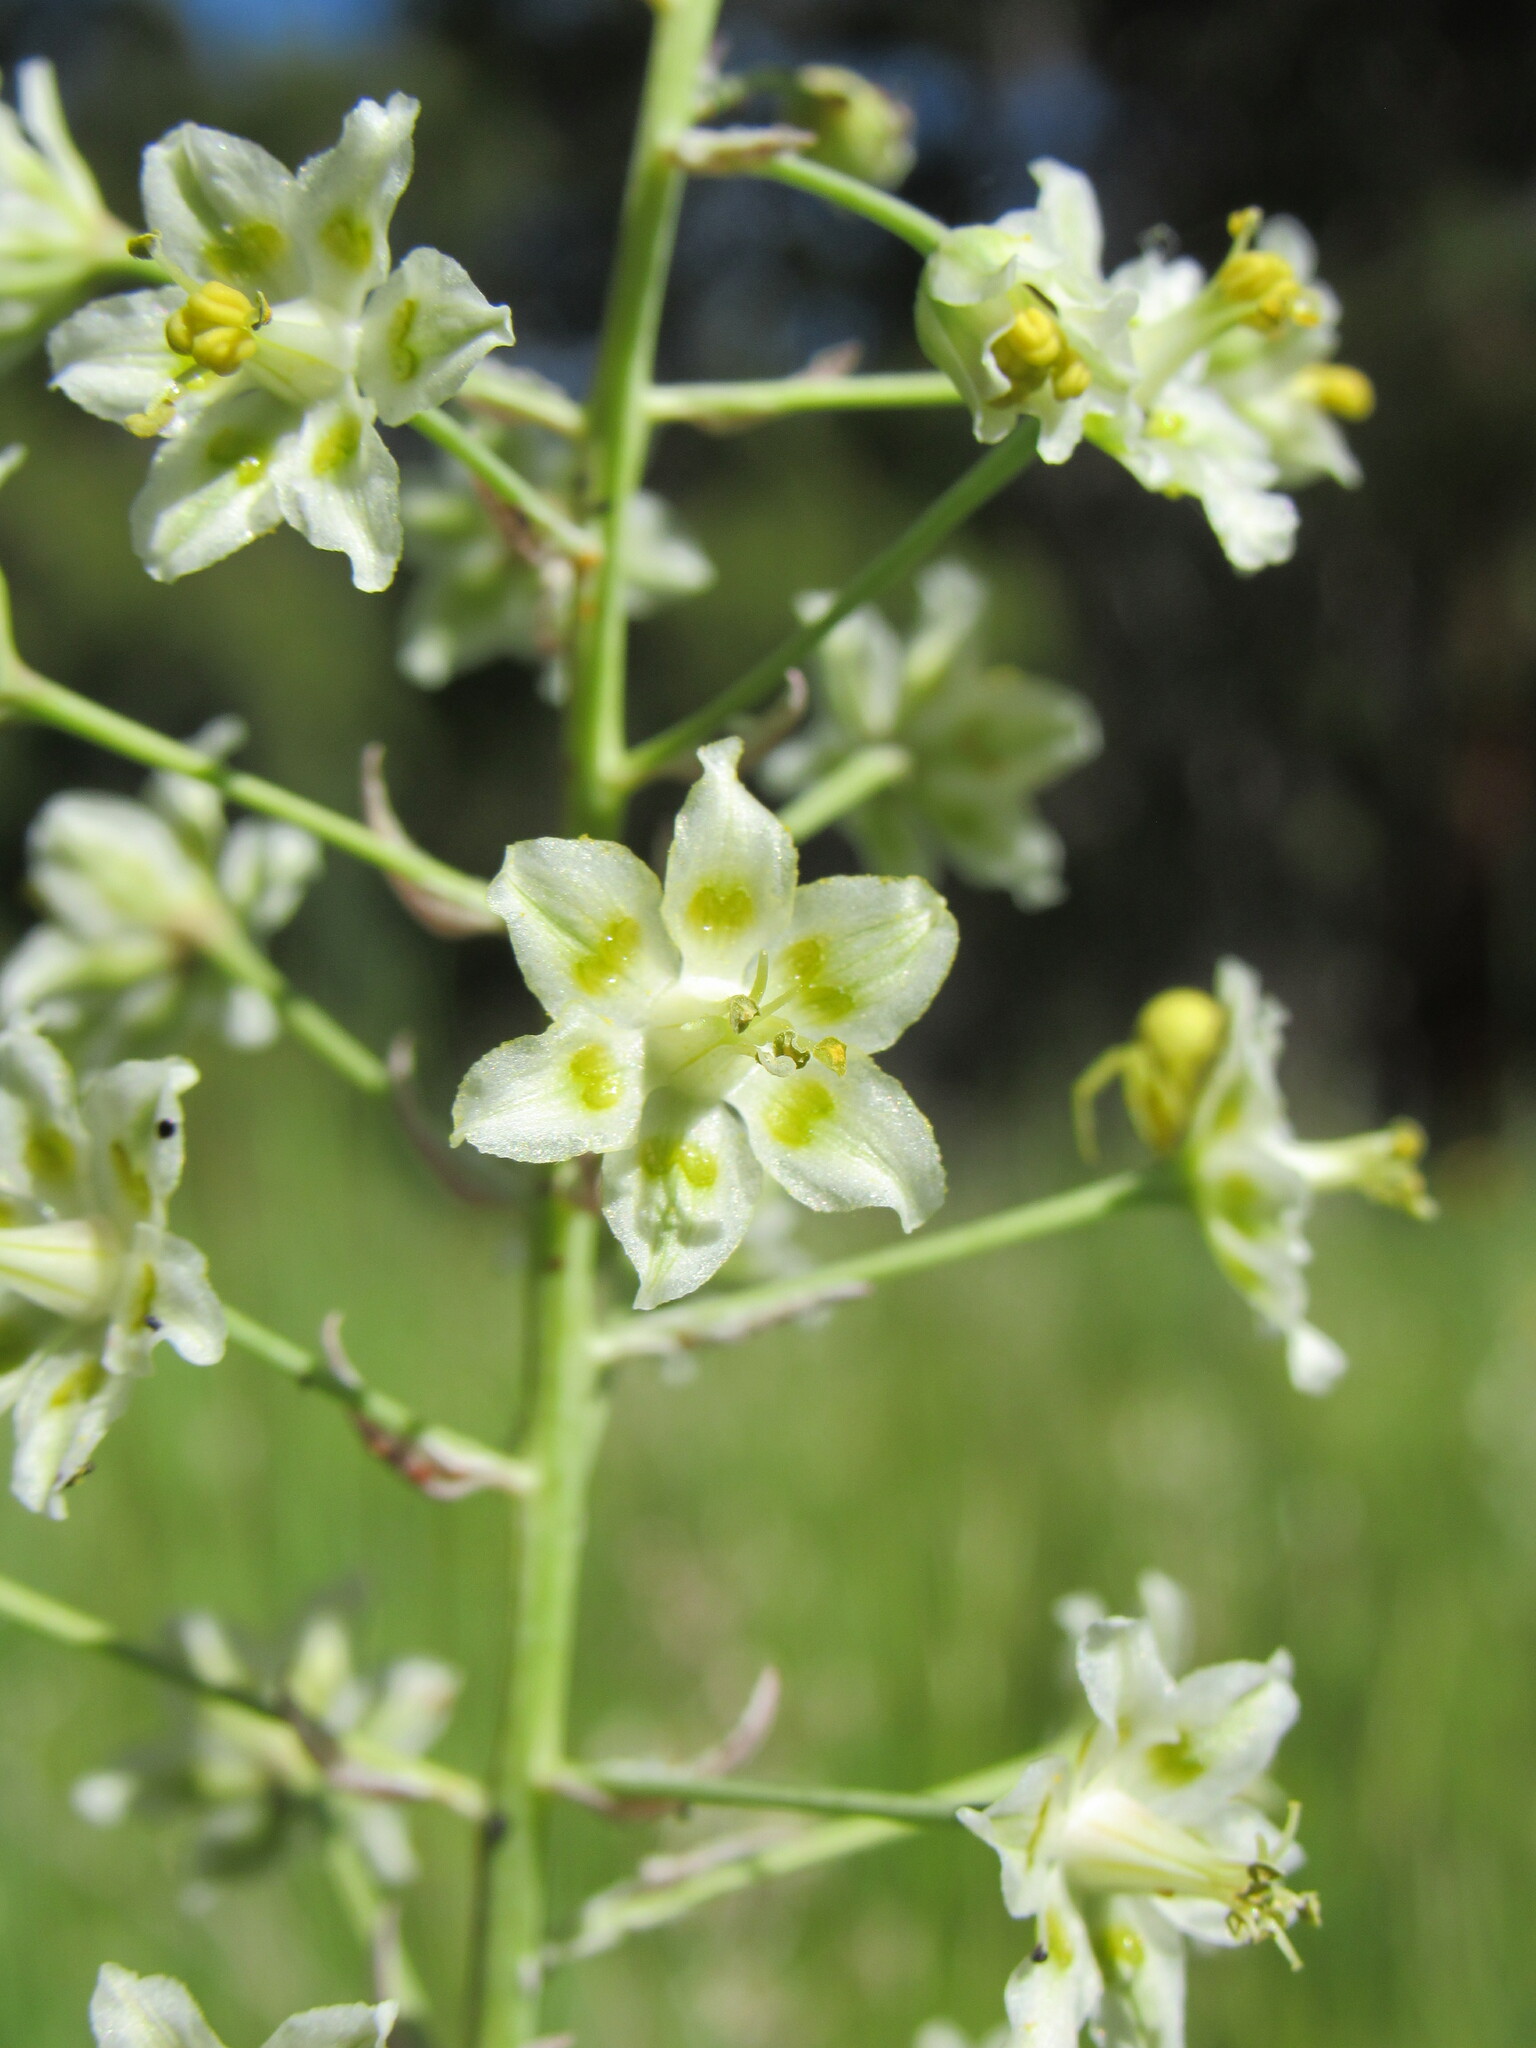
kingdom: Plantae
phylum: Tracheophyta
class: Liliopsida
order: Liliales
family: Melanthiaceae
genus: Anticlea
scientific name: Anticlea elegans
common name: Mountain death camas
